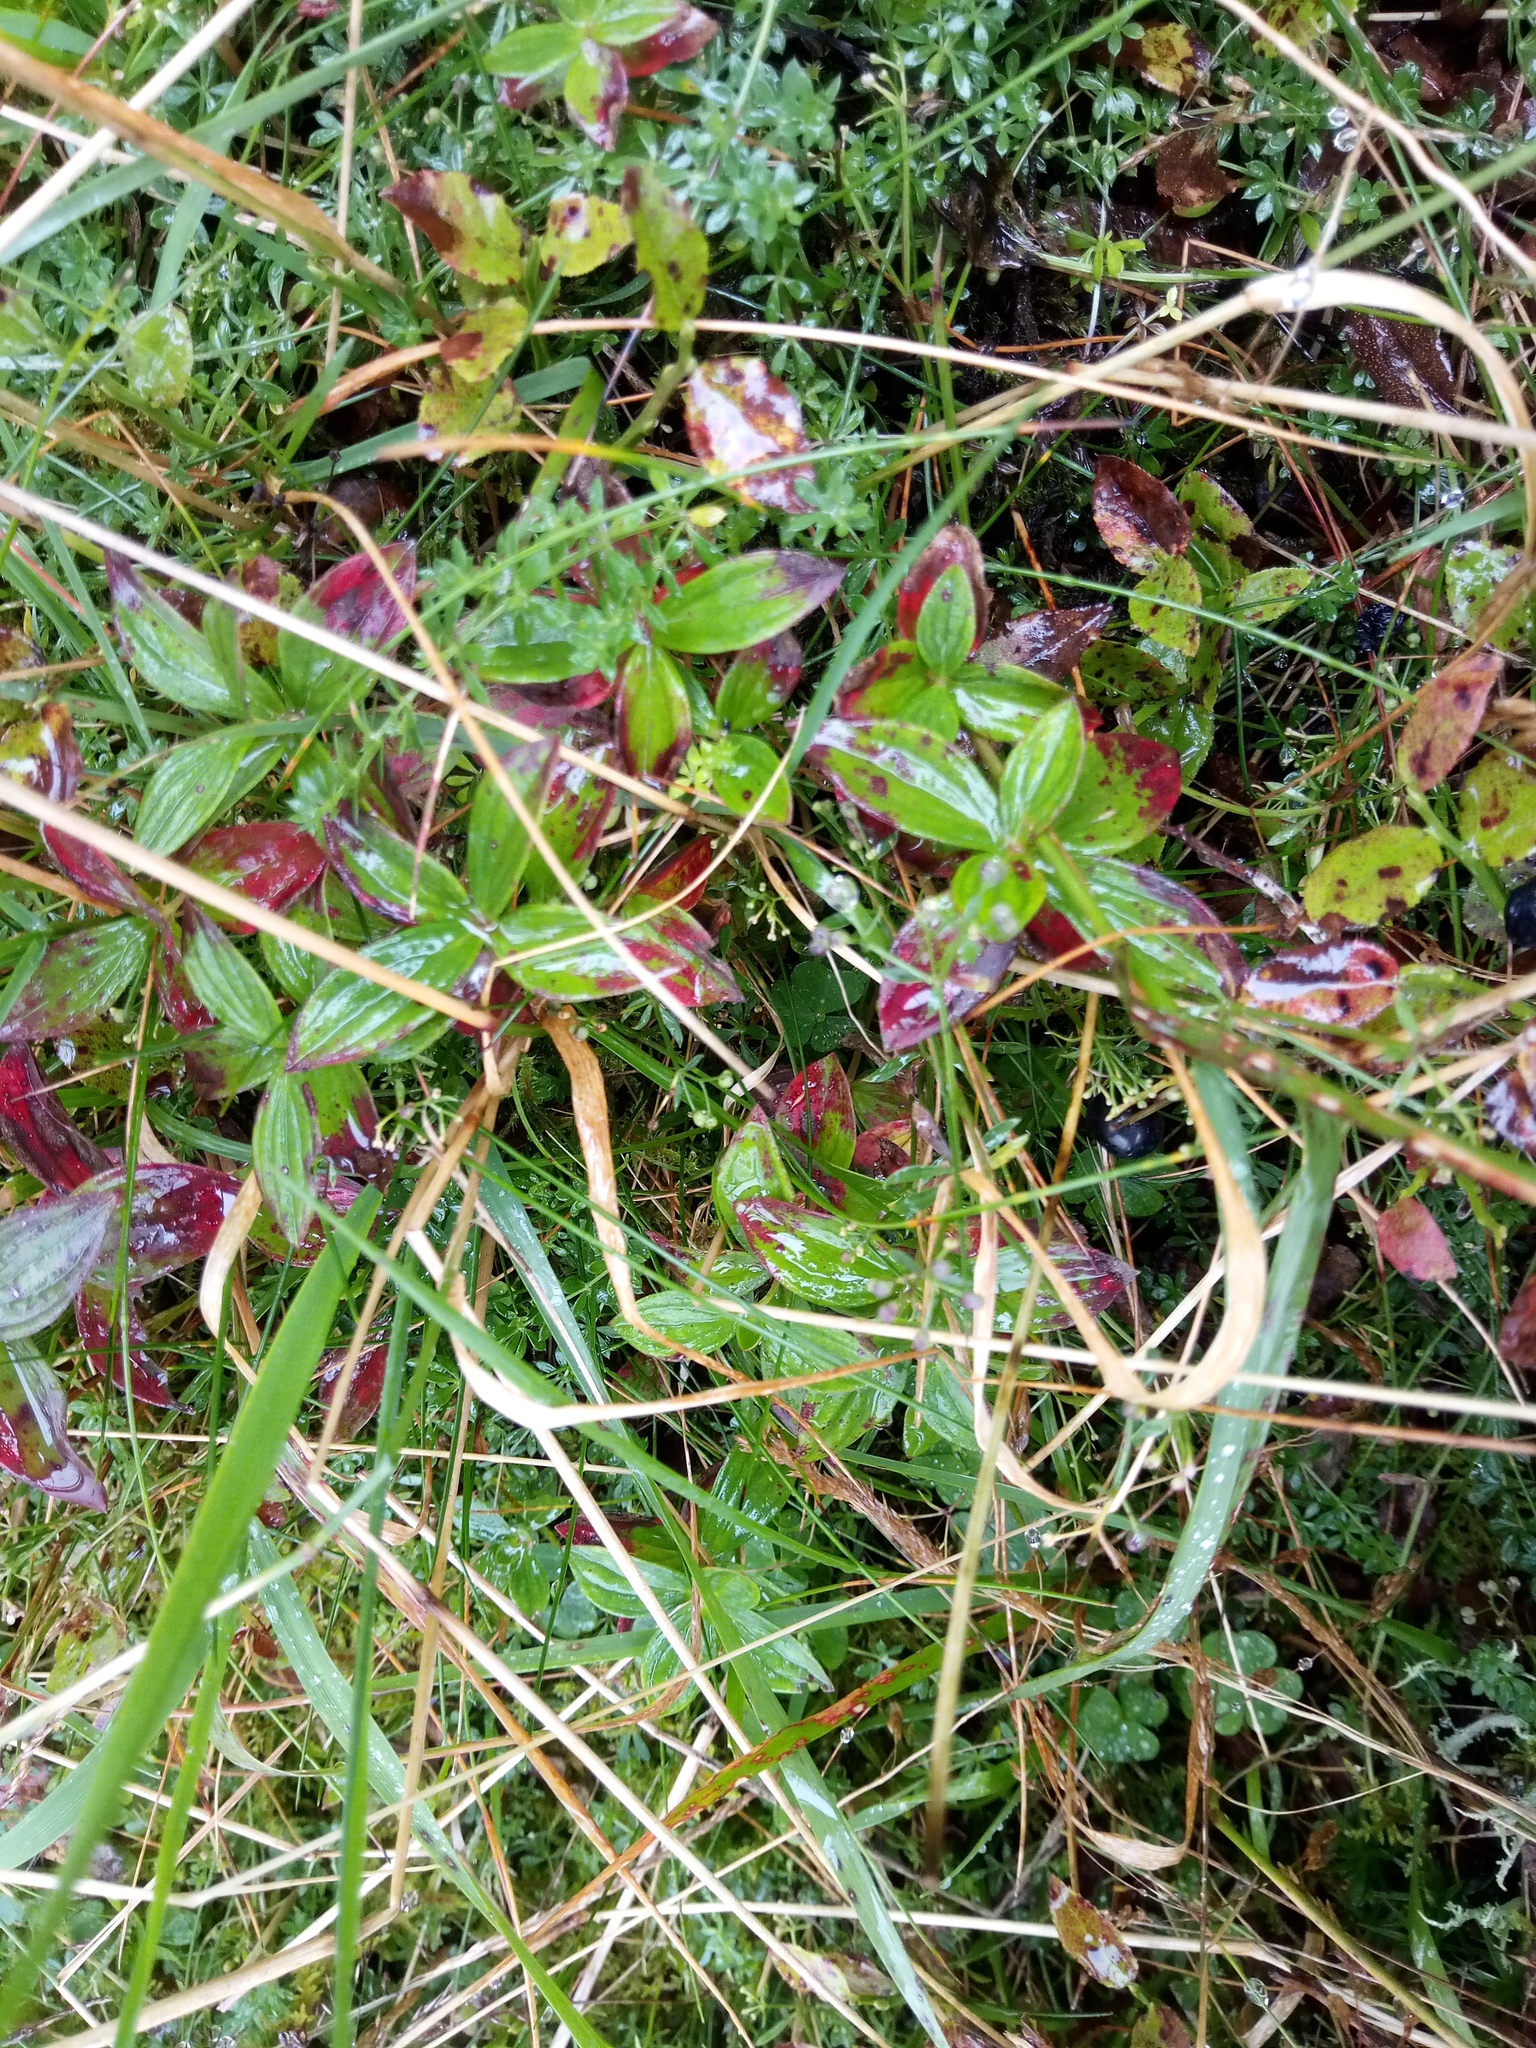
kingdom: Plantae
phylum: Tracheophyta
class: Magnoliopsida
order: Cornales
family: Cornaceae
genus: Cornus
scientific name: Cornus suecica
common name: Dwarf cornel
